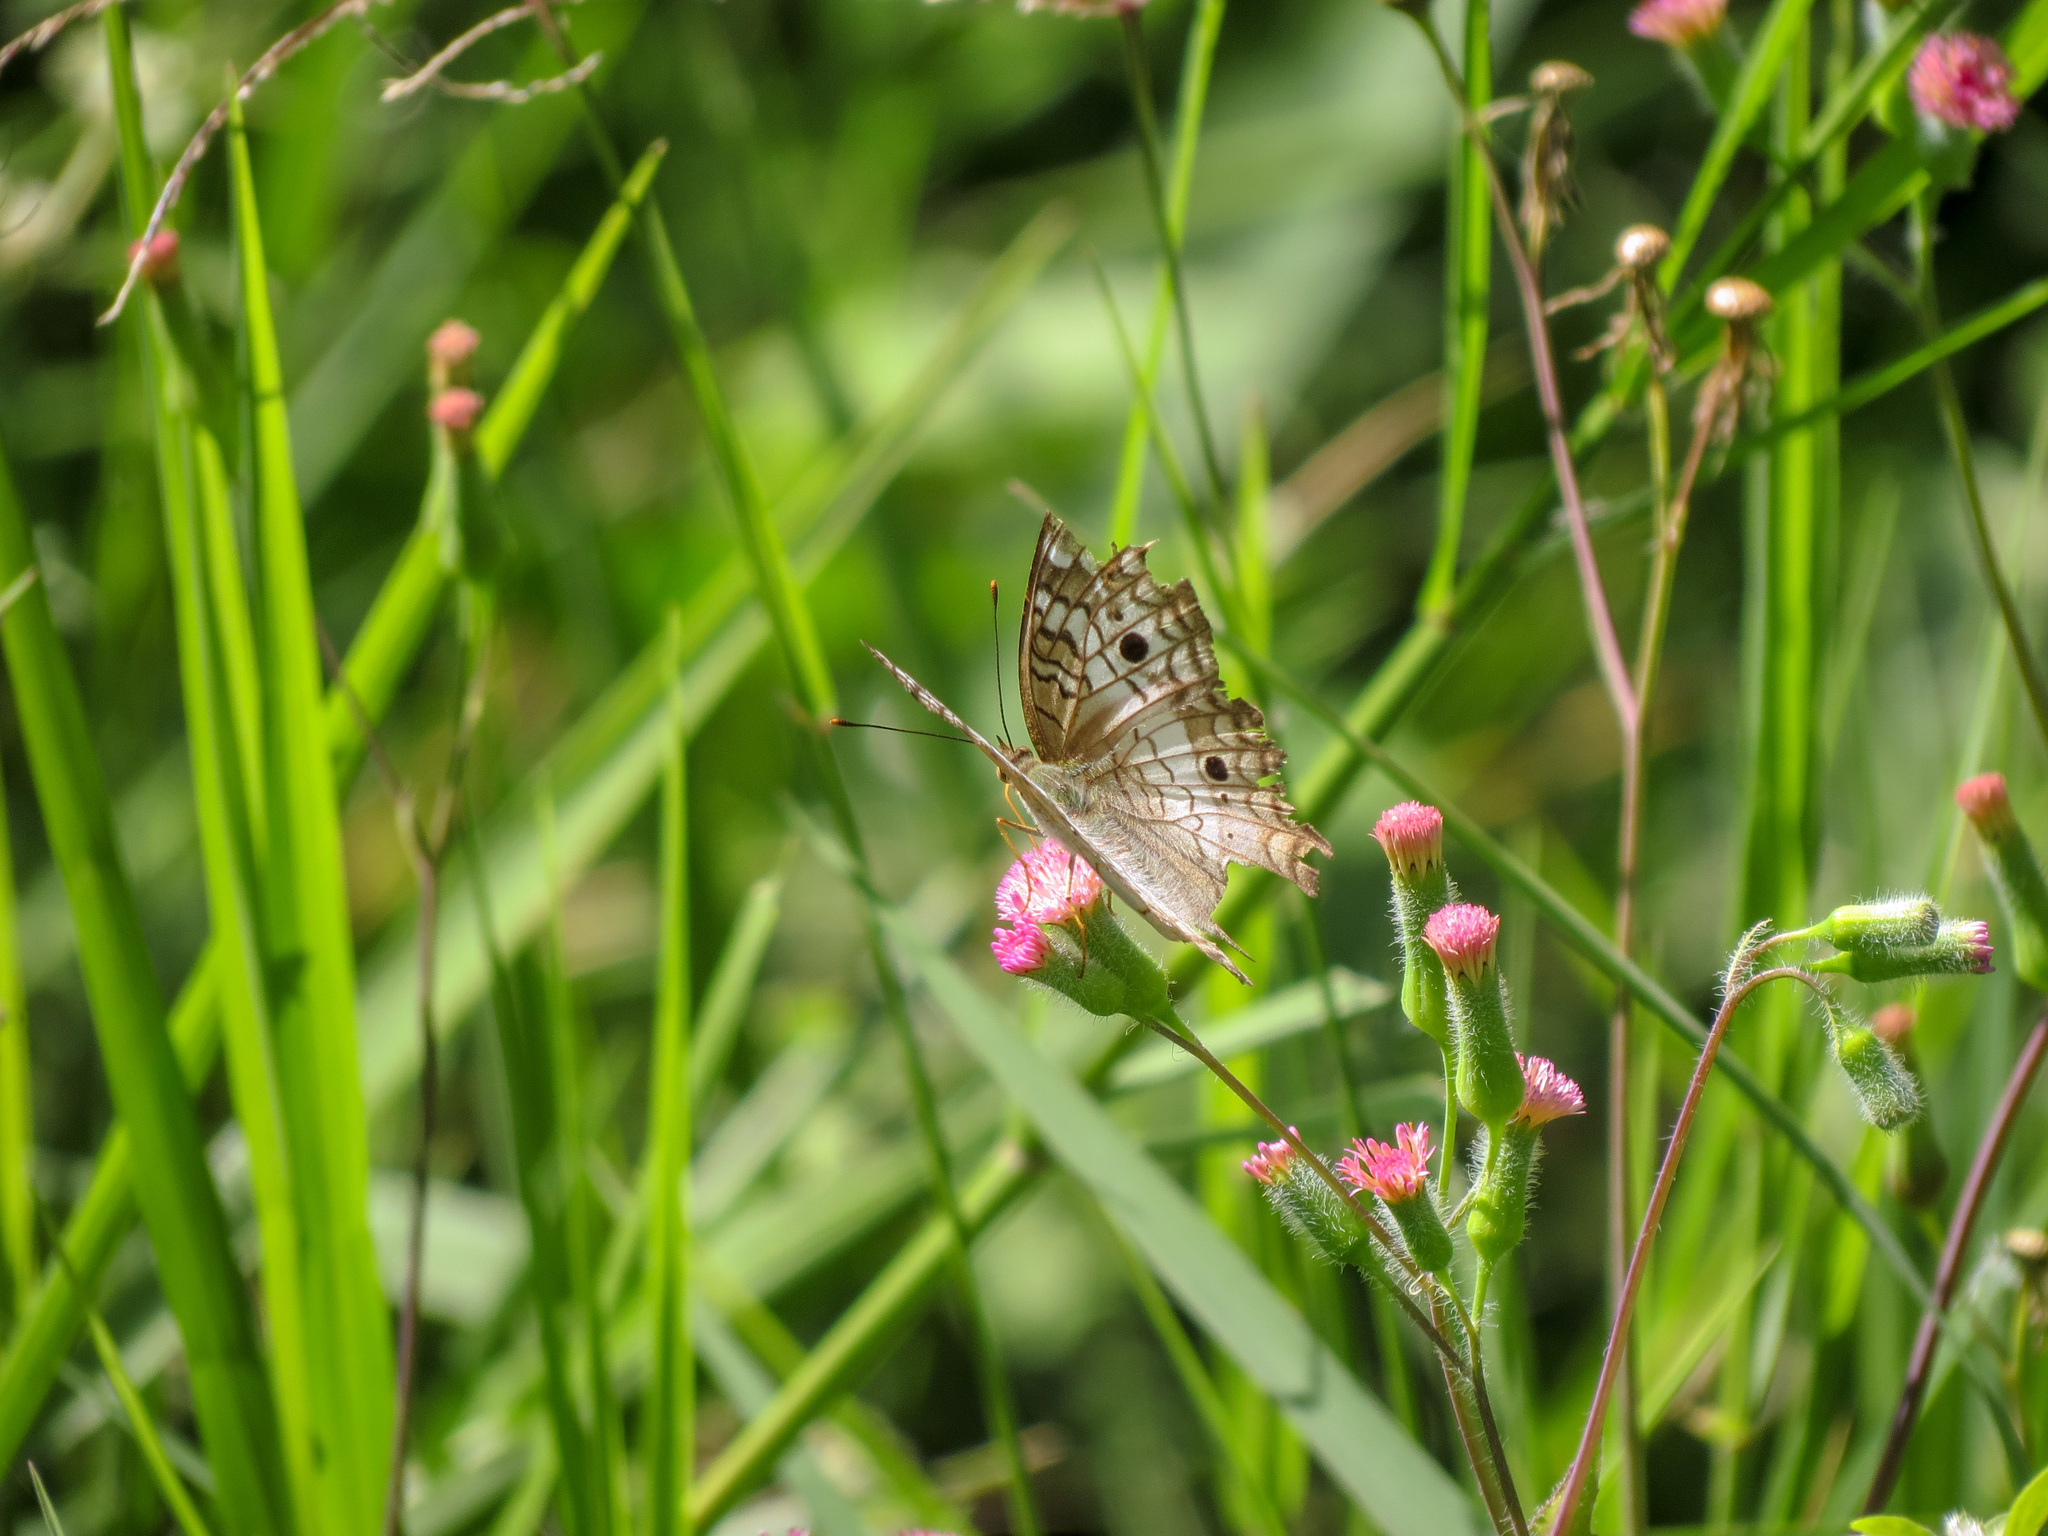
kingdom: Animalia
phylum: Arthropoda
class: Insecta
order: Lepidoptera
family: Nymphalidae
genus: Anartia
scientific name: Anartia jatrophae
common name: White peacock
